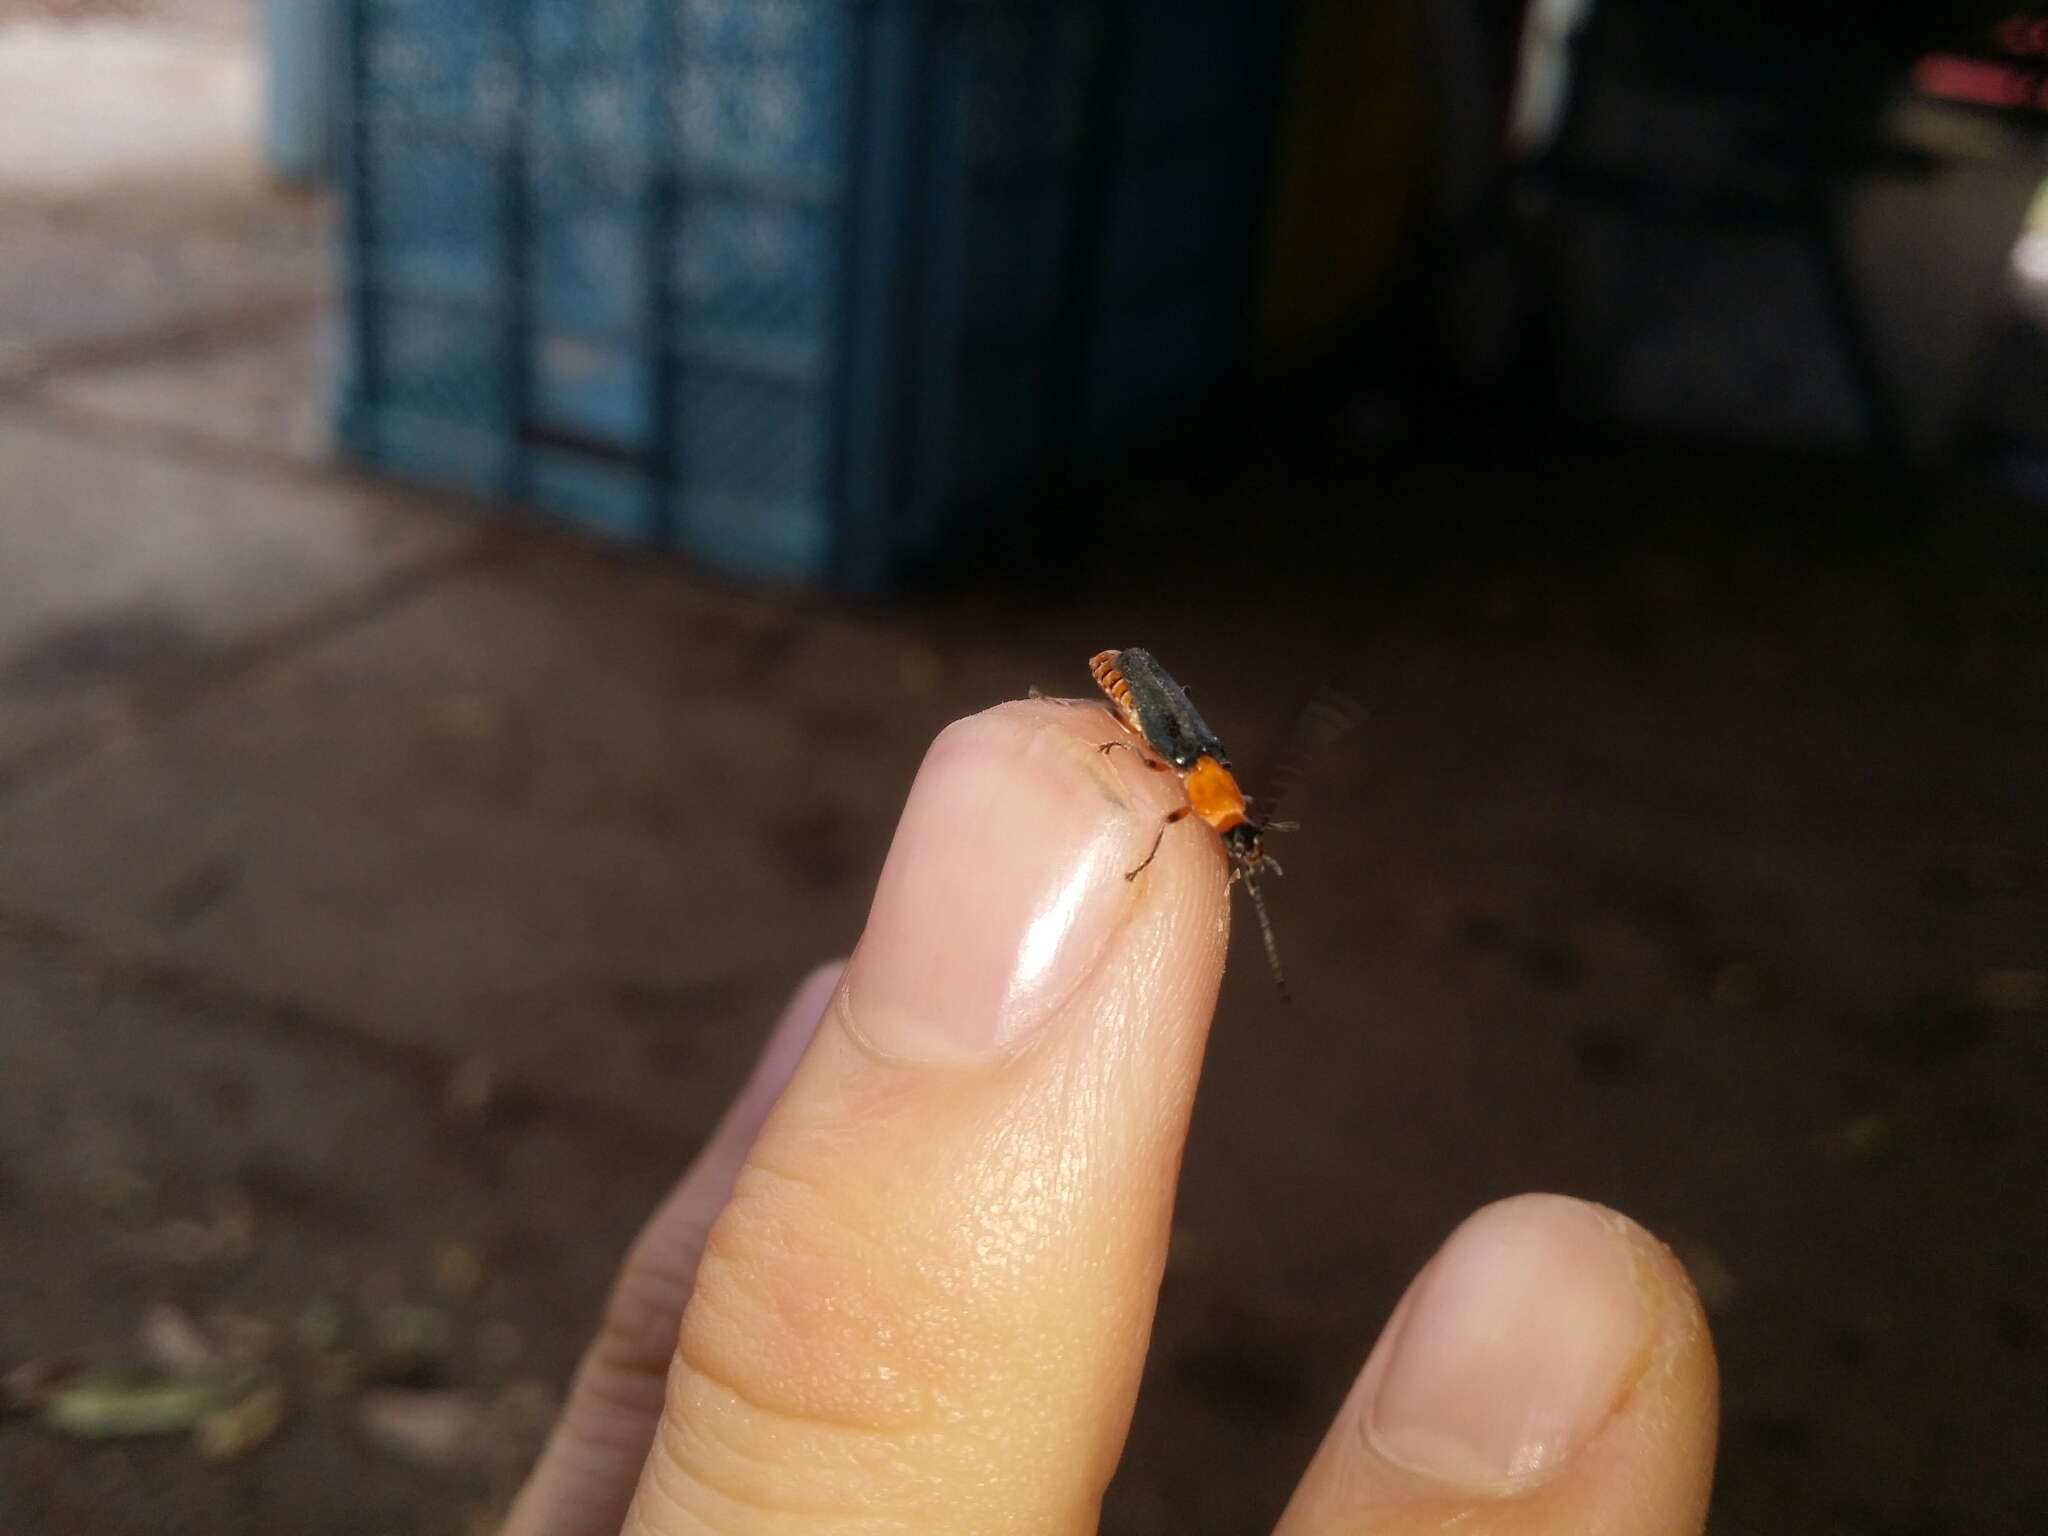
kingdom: Animalia
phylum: Arthropoda
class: Insecta
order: Coleoptera
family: Cantharidae
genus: Chauliognathus
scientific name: Chauliognathus
